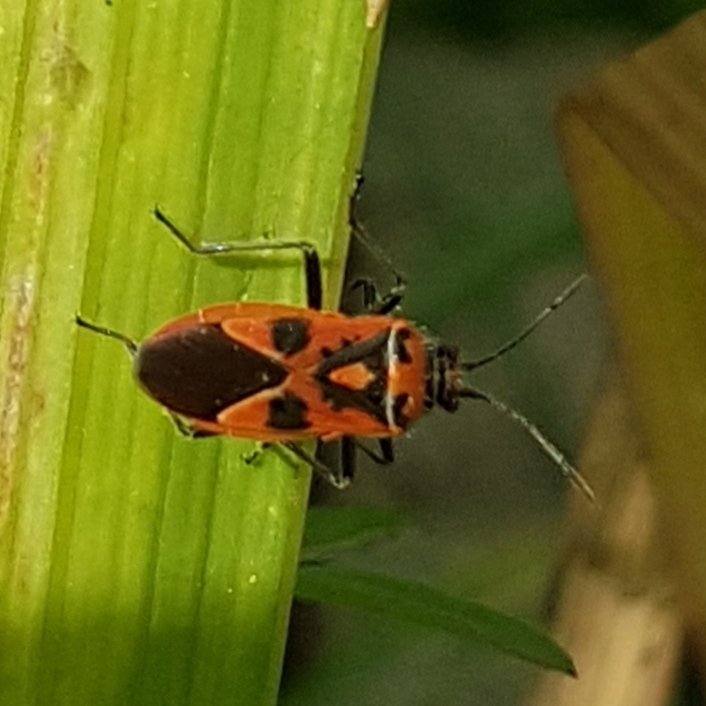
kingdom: Animalia
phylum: Arthropoda
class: Insecta
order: Hemiptera
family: Rhopalidae
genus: Corizus
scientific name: Corizus hyoscyami
